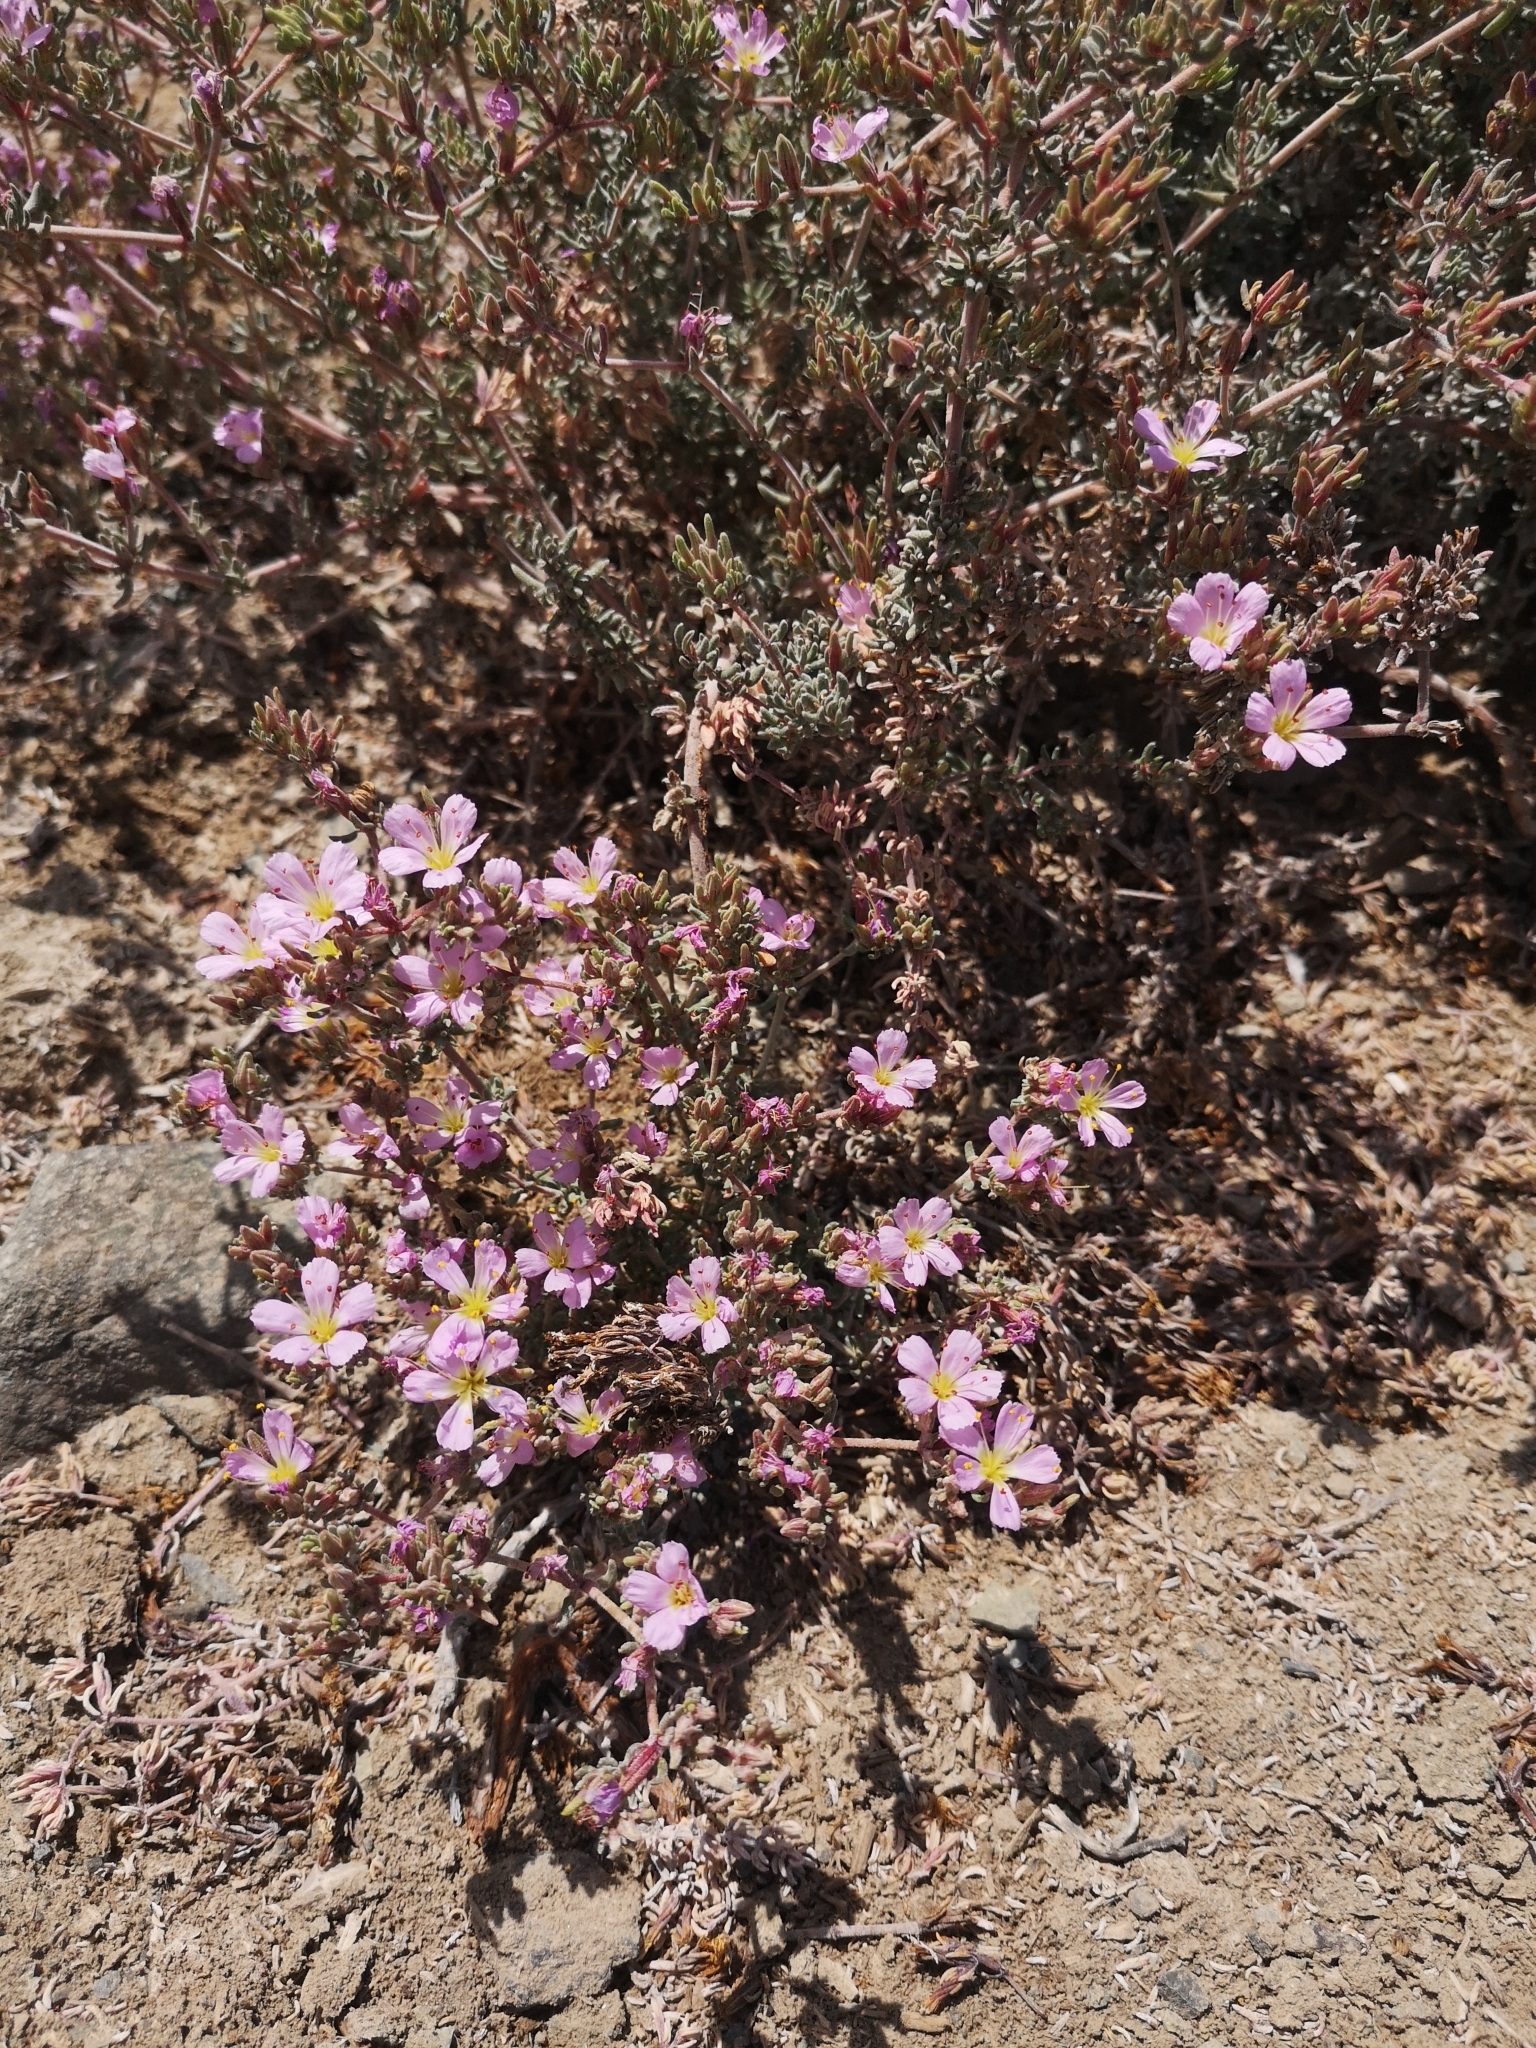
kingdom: Plantae
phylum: Tracheophyta
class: Magnoliopsida
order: Caryophyllales
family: Frankeniaceae
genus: Frankenia
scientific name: Frankenia chilensis
